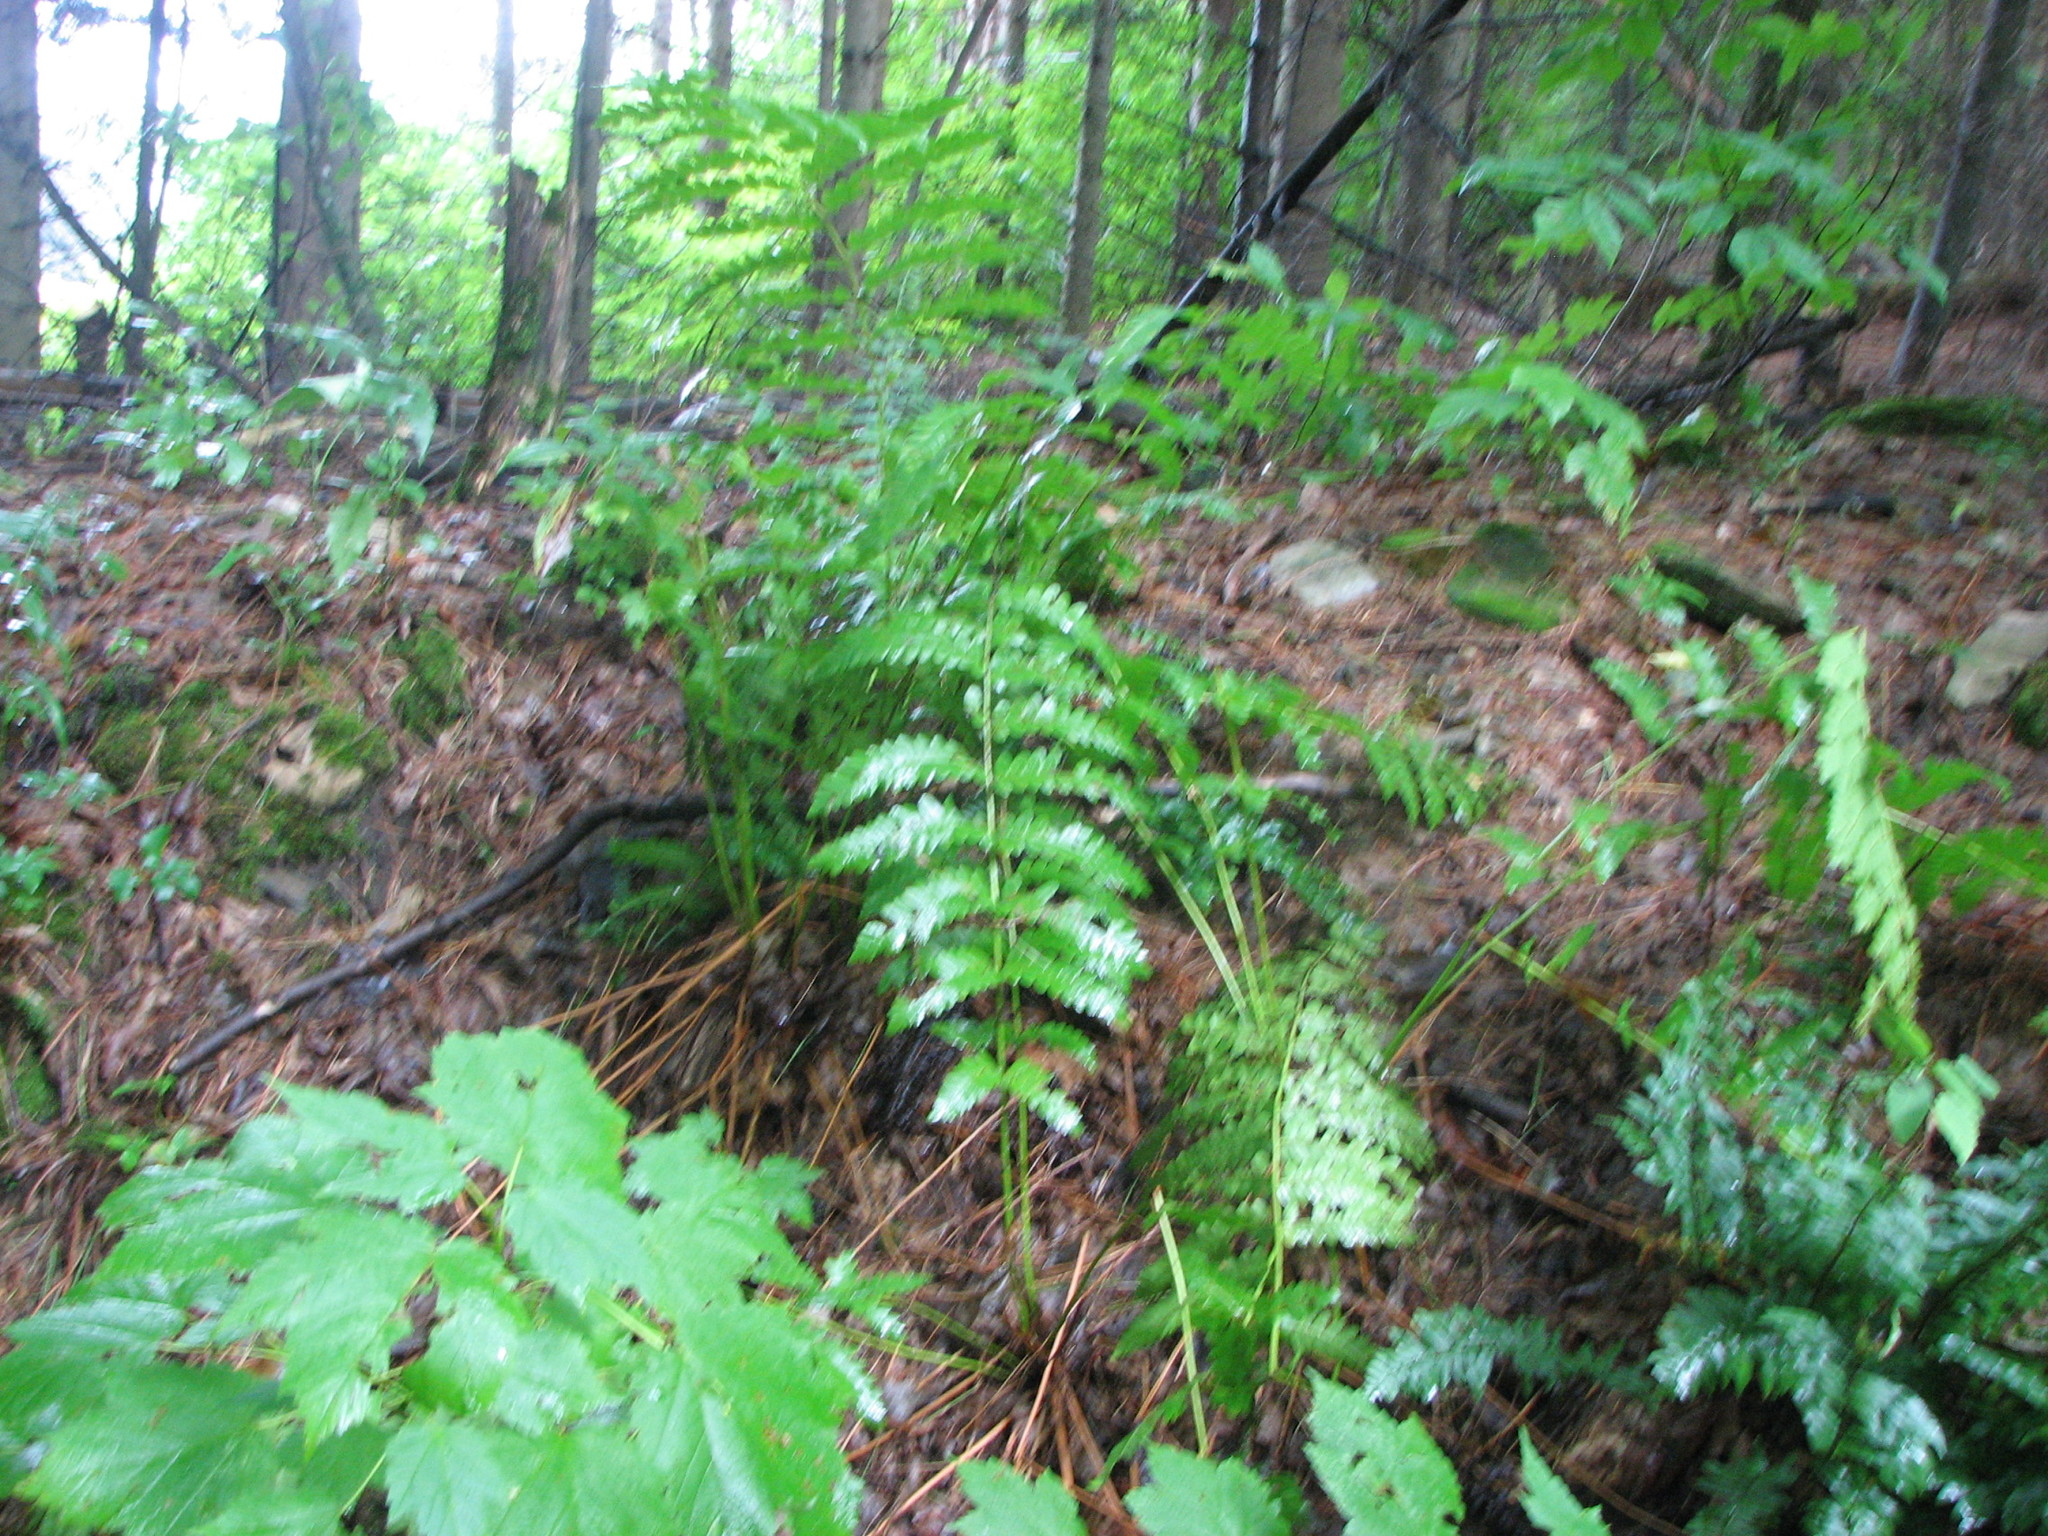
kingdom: Plantae
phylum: Tracheophyta
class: Polypodiopsida
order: Osmundales
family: Osmundaceae
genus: Osmundastrum
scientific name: Osmundastrum cinnamomeum
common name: Cinnamon fern
